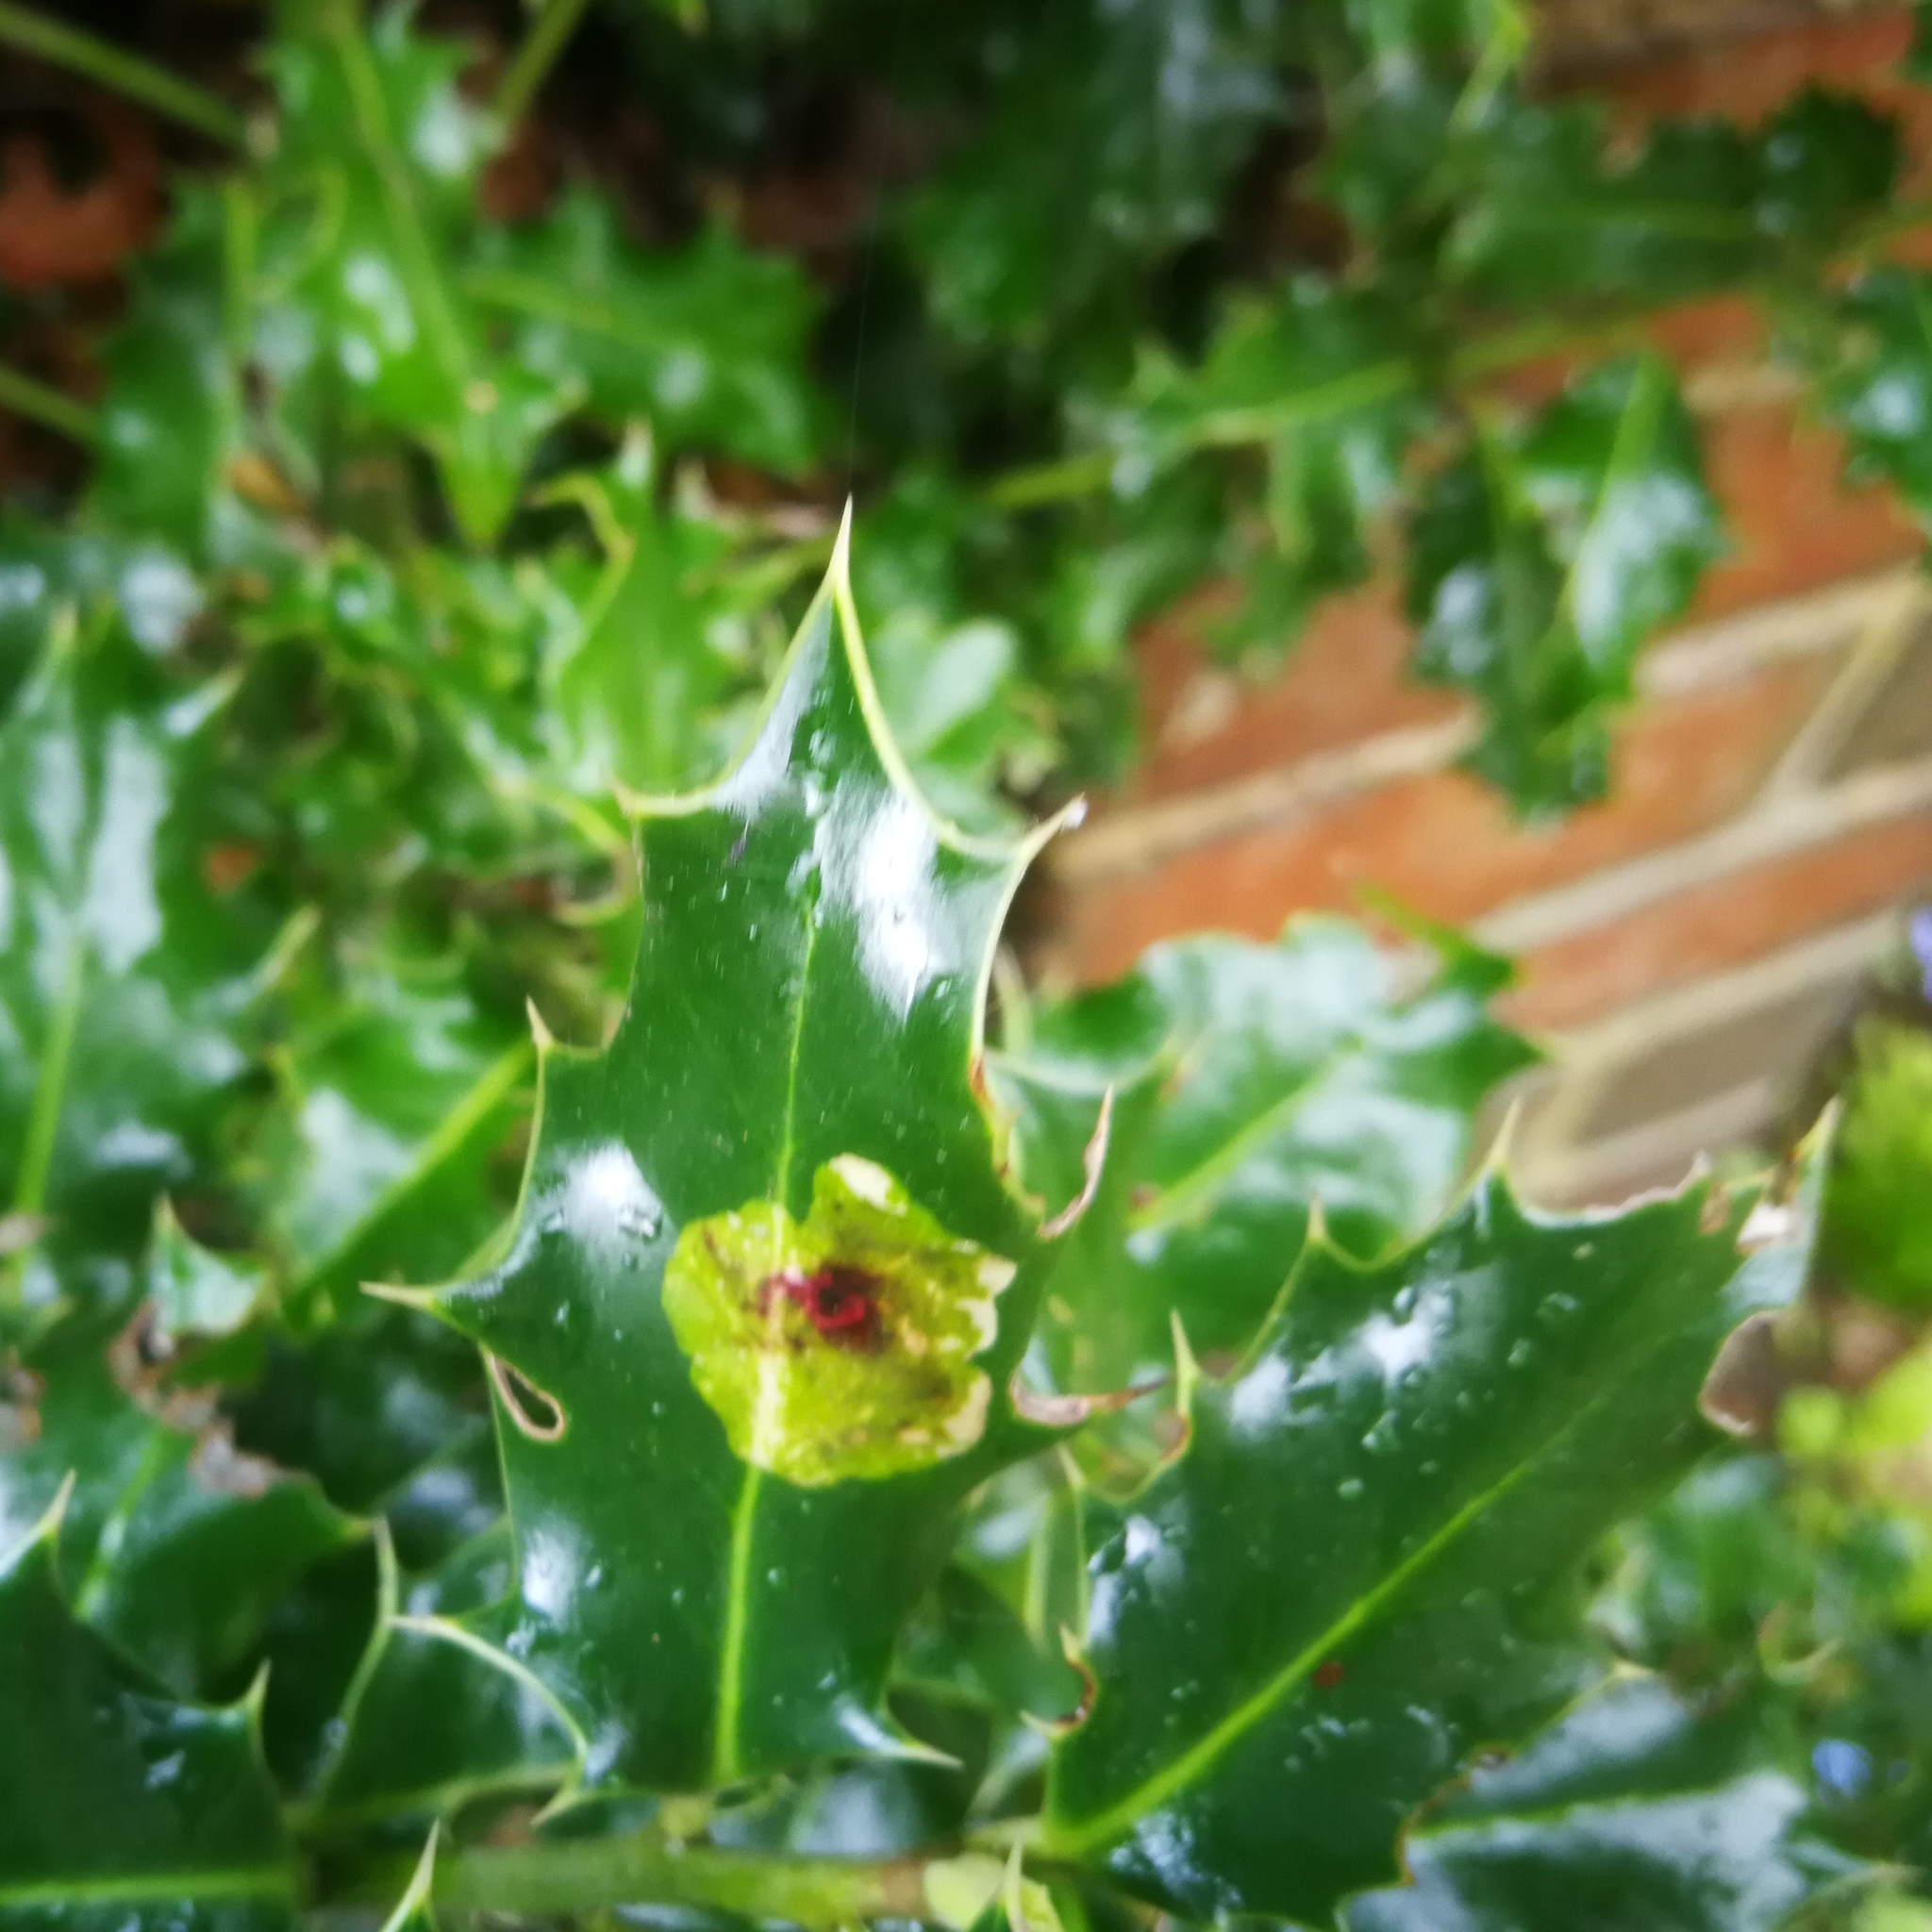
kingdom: Animalia
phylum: Arthropoda
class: Insecta
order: Diptera
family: Agromyzidae
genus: Phytomyza
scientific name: Phytomyza ilicis
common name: Holly leafminer
